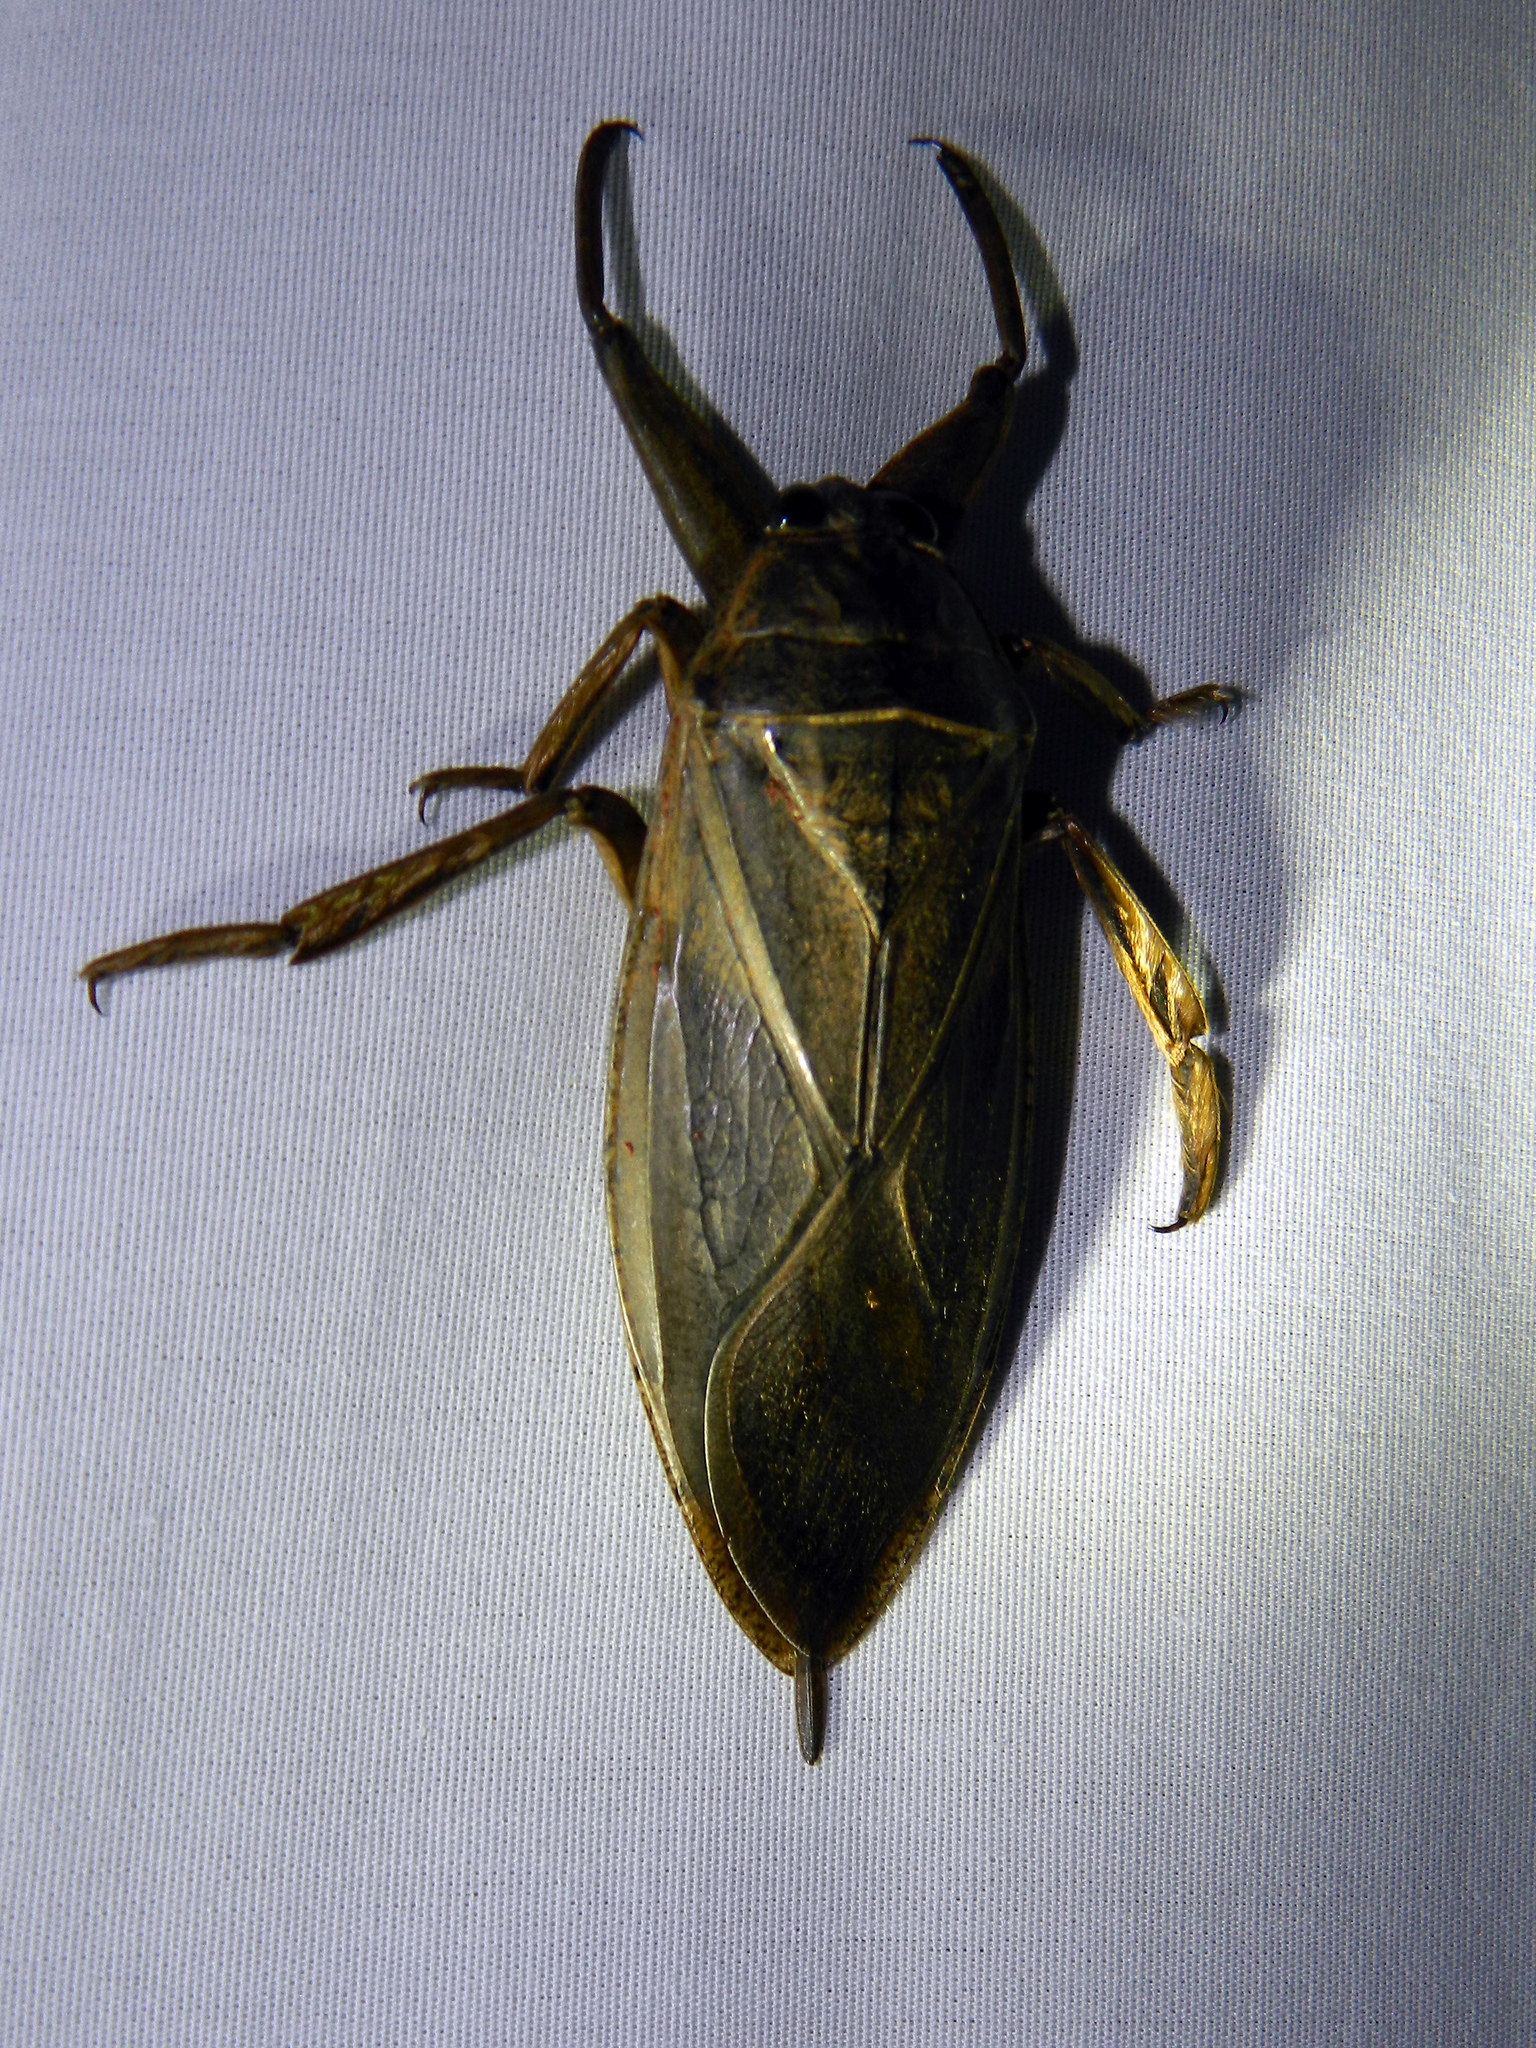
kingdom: Animalia
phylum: Arthropoda
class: Insecta
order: Hemiptera
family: Belostomatidae
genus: Lethocerus
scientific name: Lethocerus americanus
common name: Giant water bug
